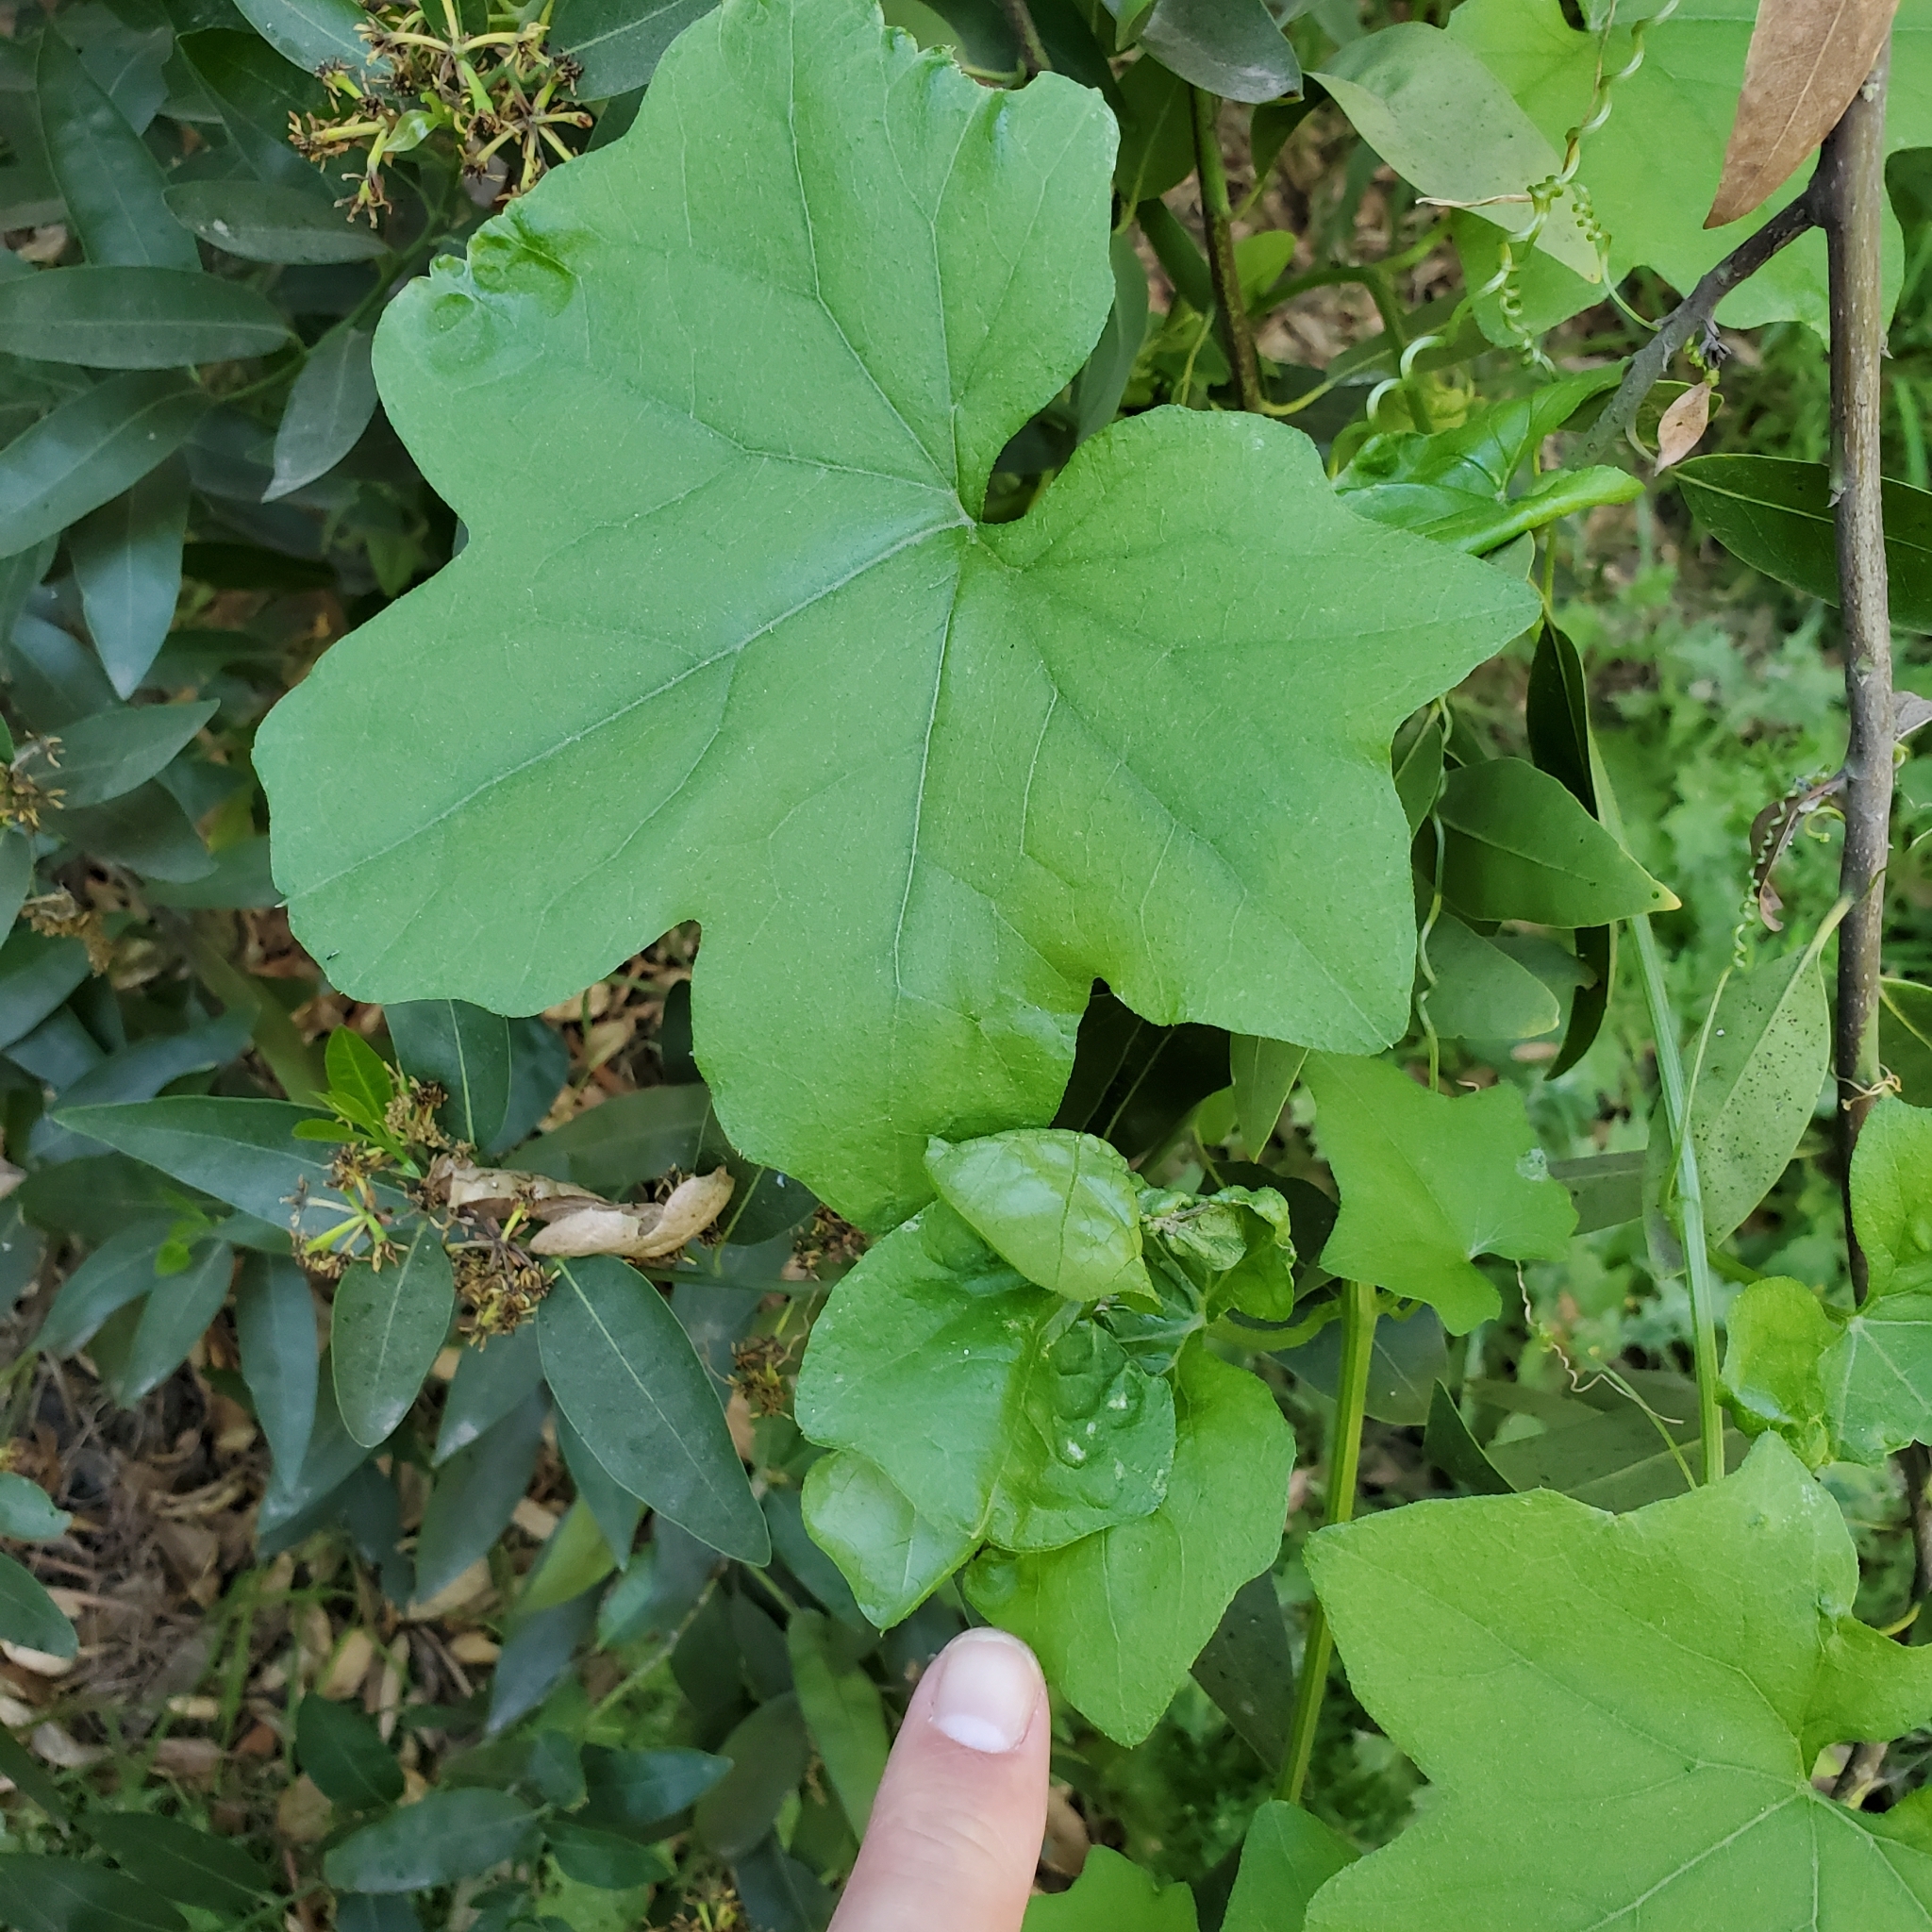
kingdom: Plantae
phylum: Tracheophyta
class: Magnoliopsida
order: Cucurbitales
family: Cucurbitaceae
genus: Marah
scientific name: Marah macrocarpa
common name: Cucamonga manroot
